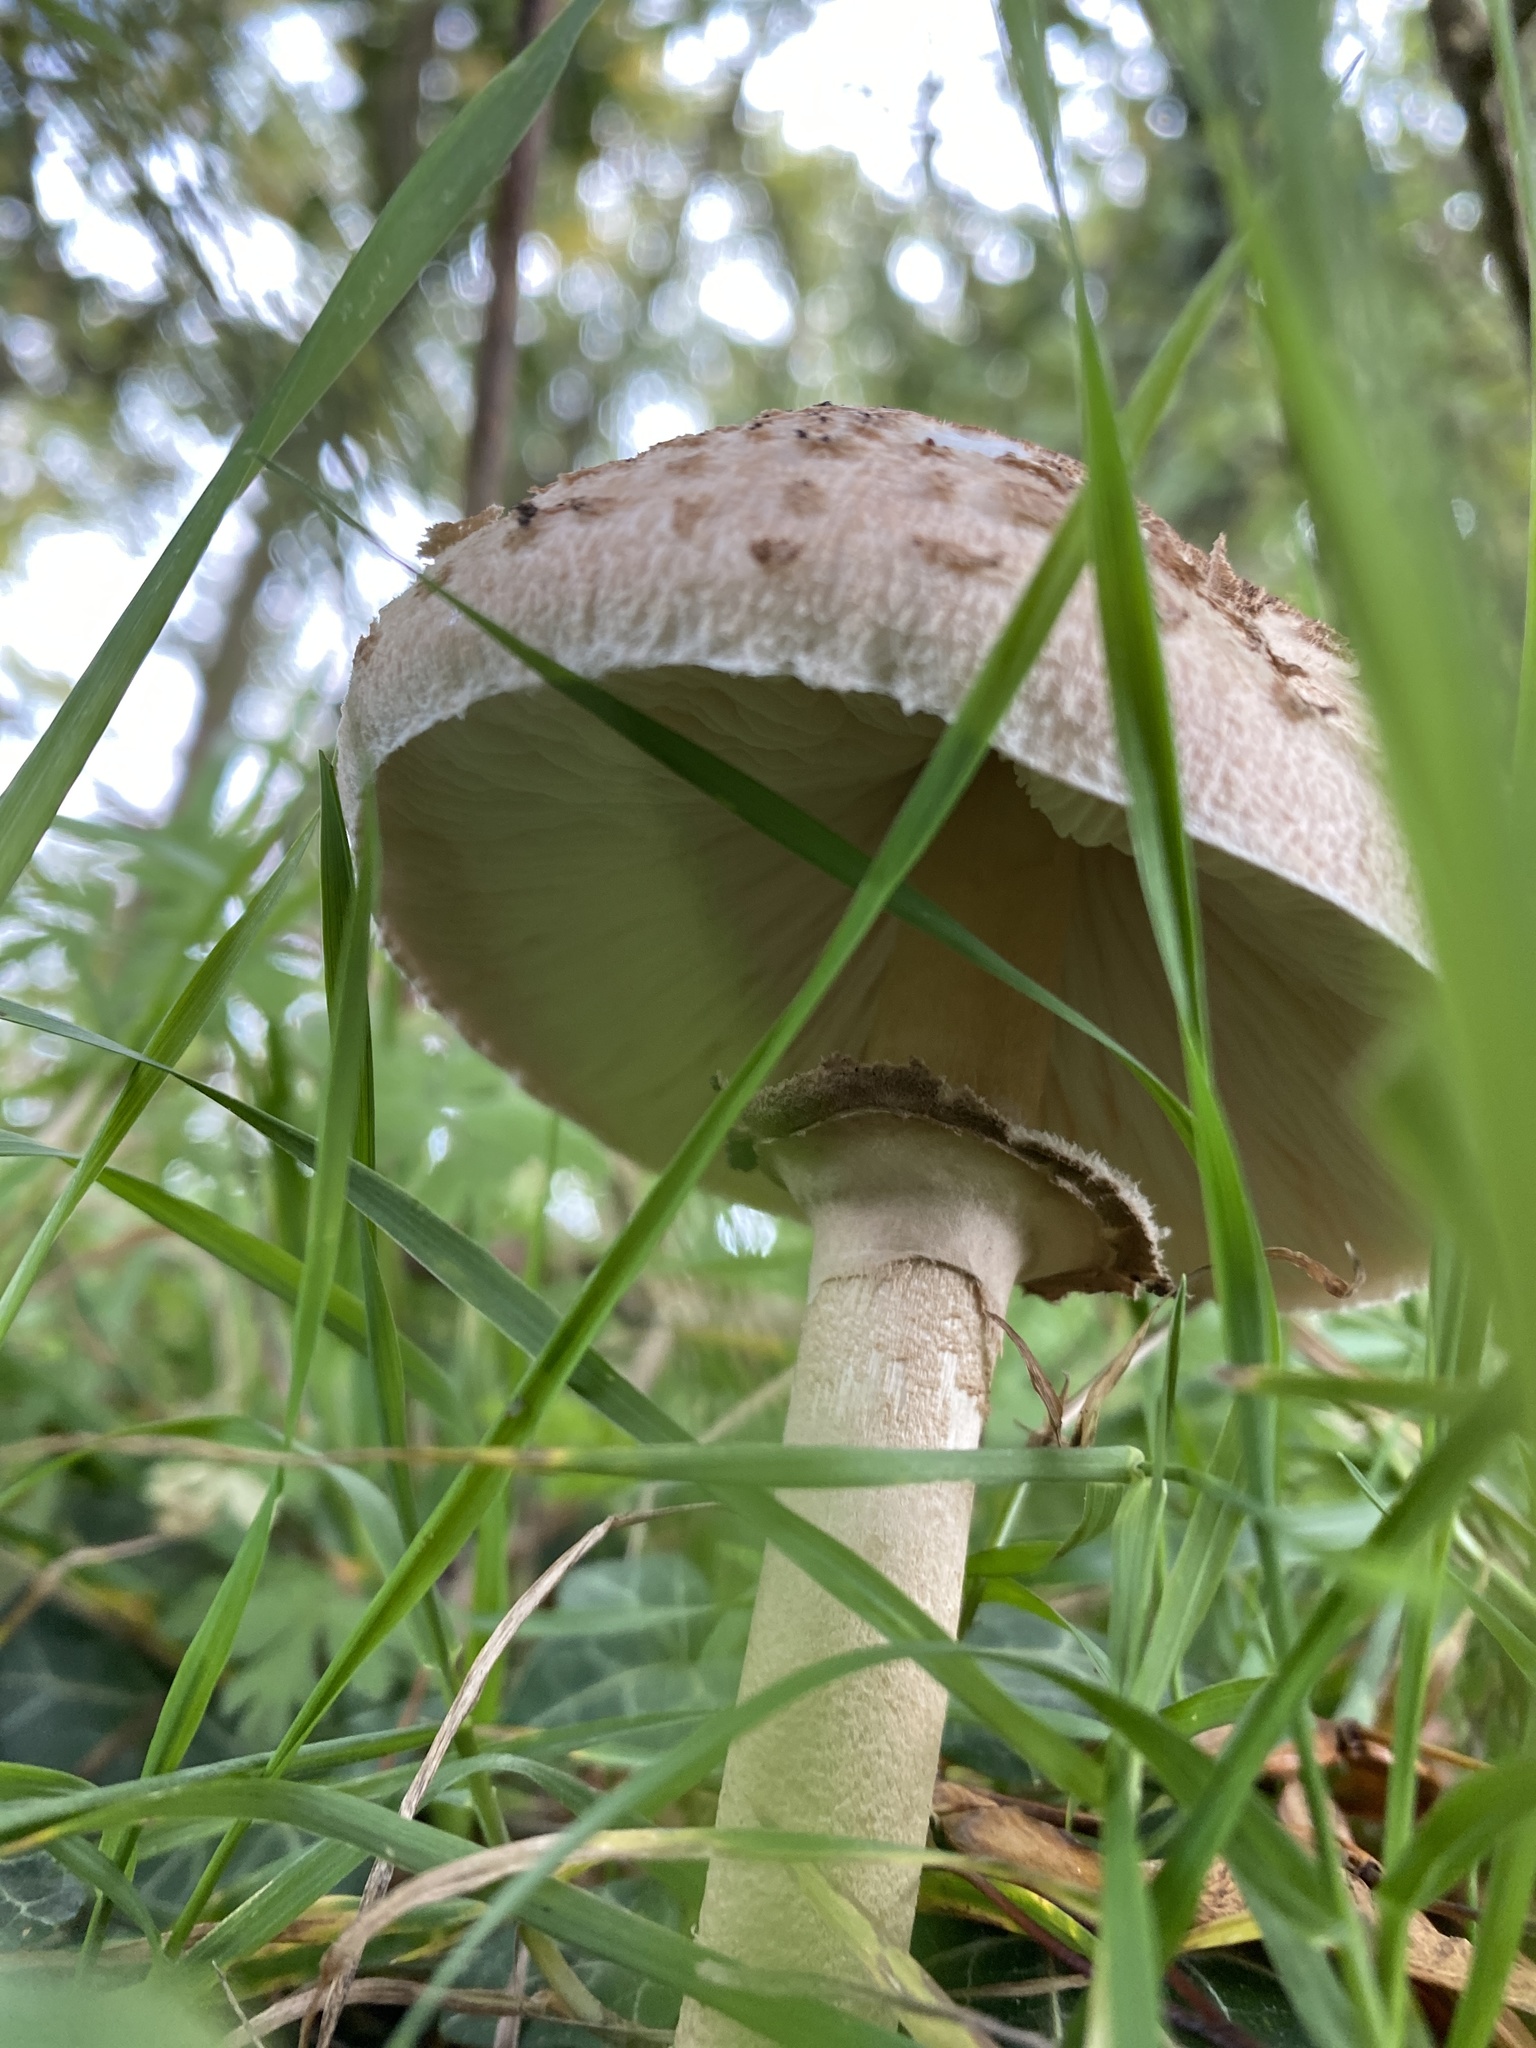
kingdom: Fungi
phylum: Basidiomycota
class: Agaricomycetes
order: Agaricales
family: Agaricaceae
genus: Macrolepiota
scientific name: Macrolepiota procera
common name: Parasol
